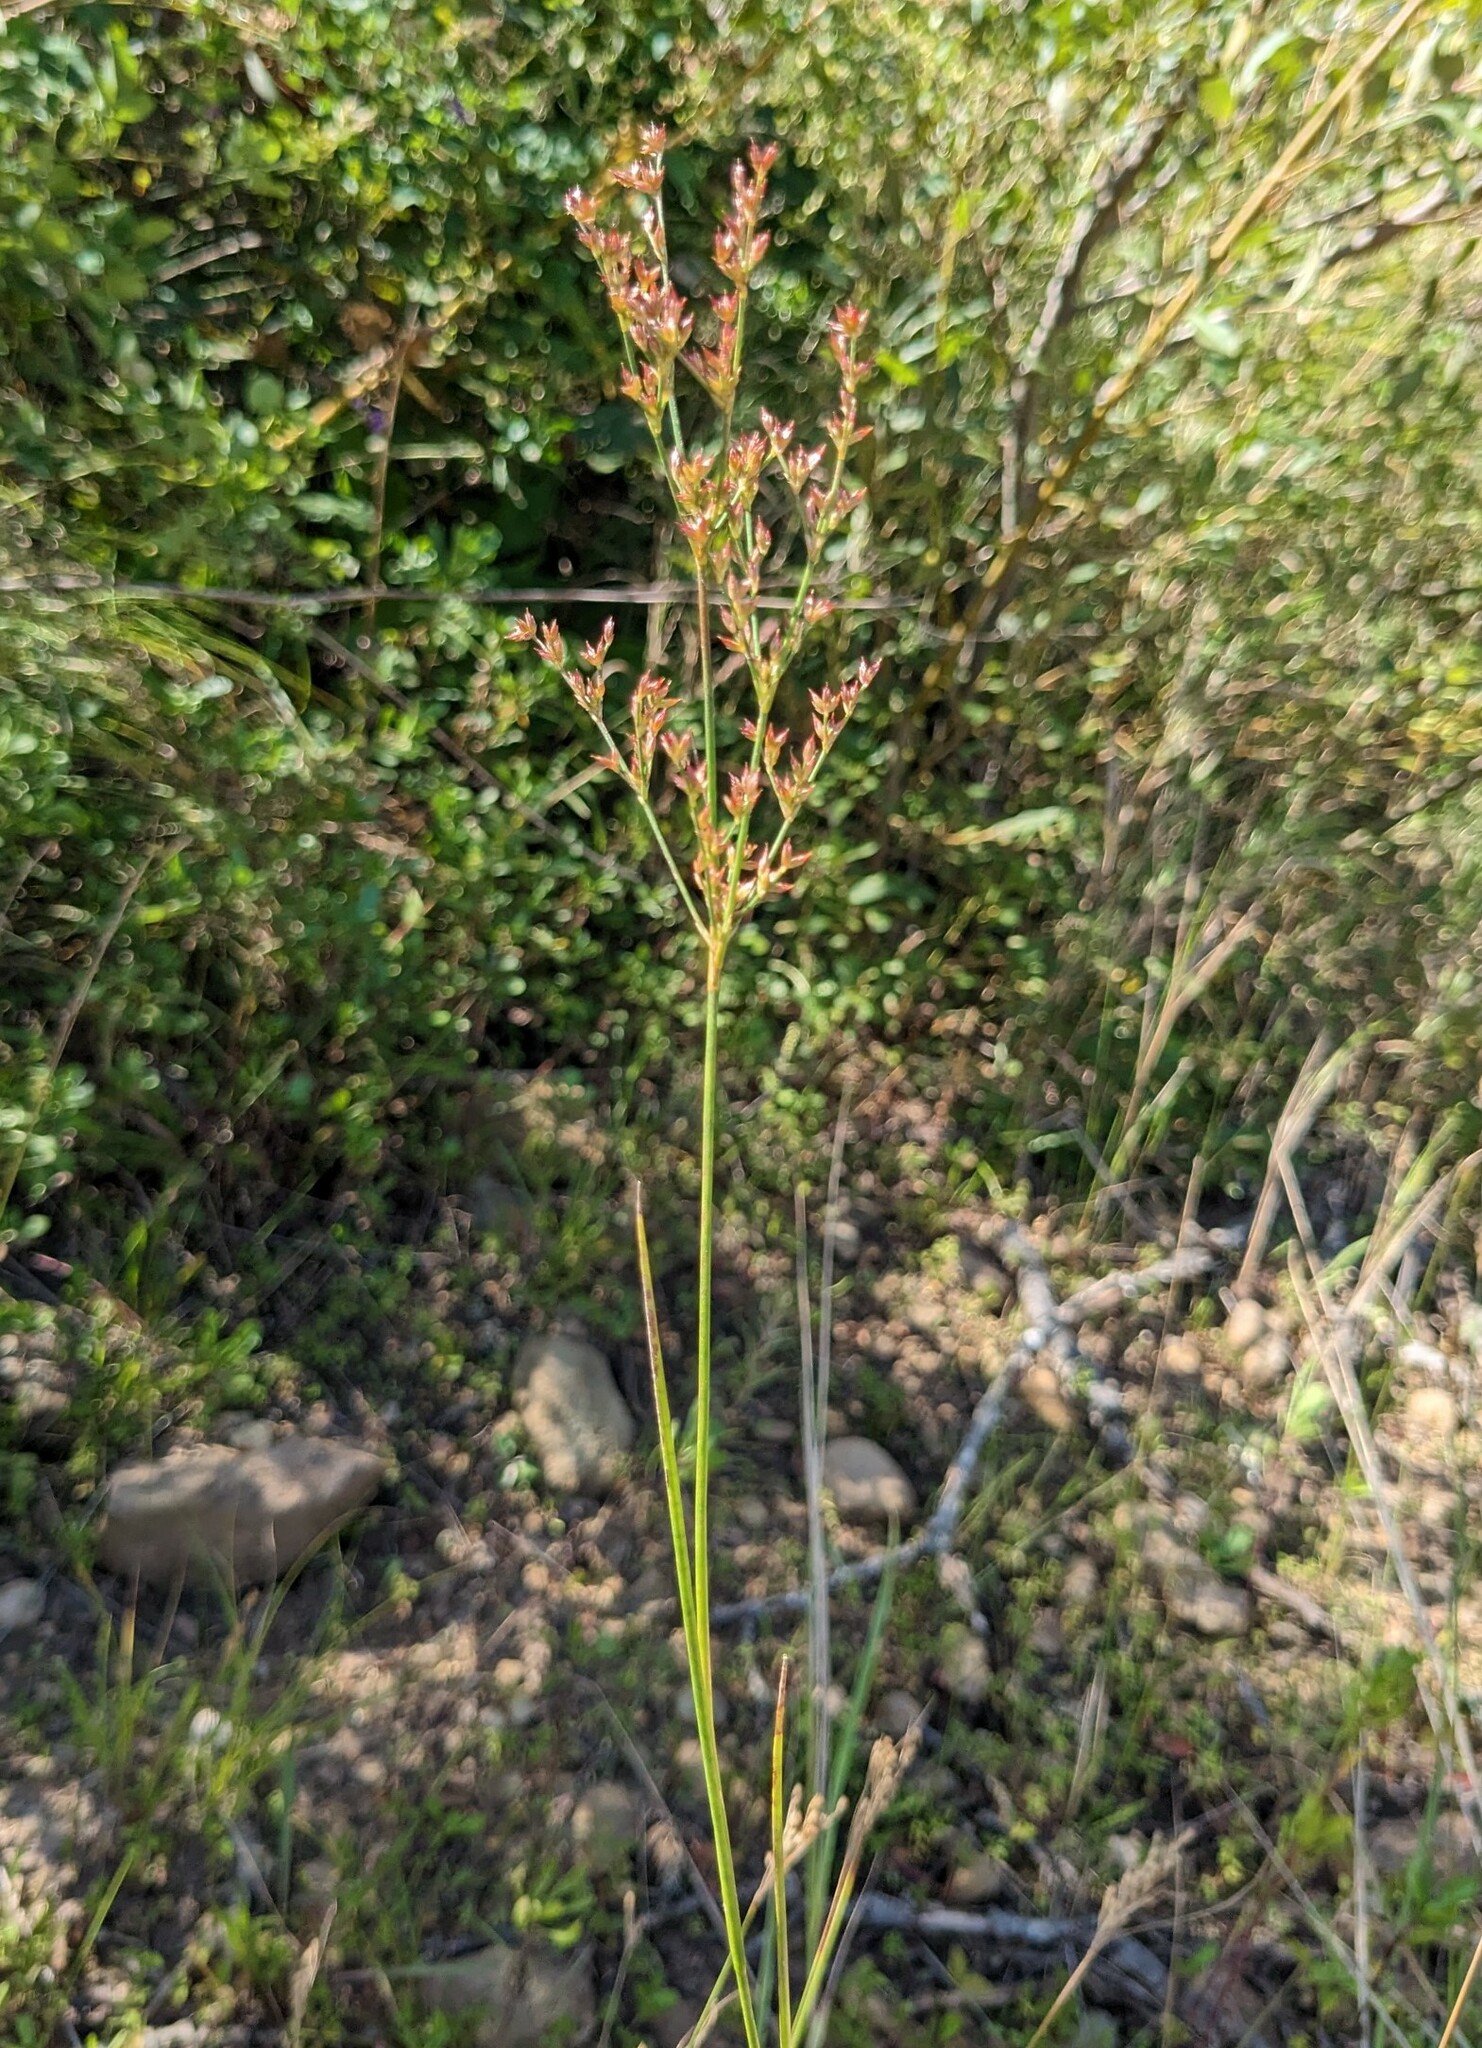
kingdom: Plantae
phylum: Tracheophyta
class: Liliopsida
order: Poales
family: Juncaceae
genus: Juncus
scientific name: Juncus papillosus
